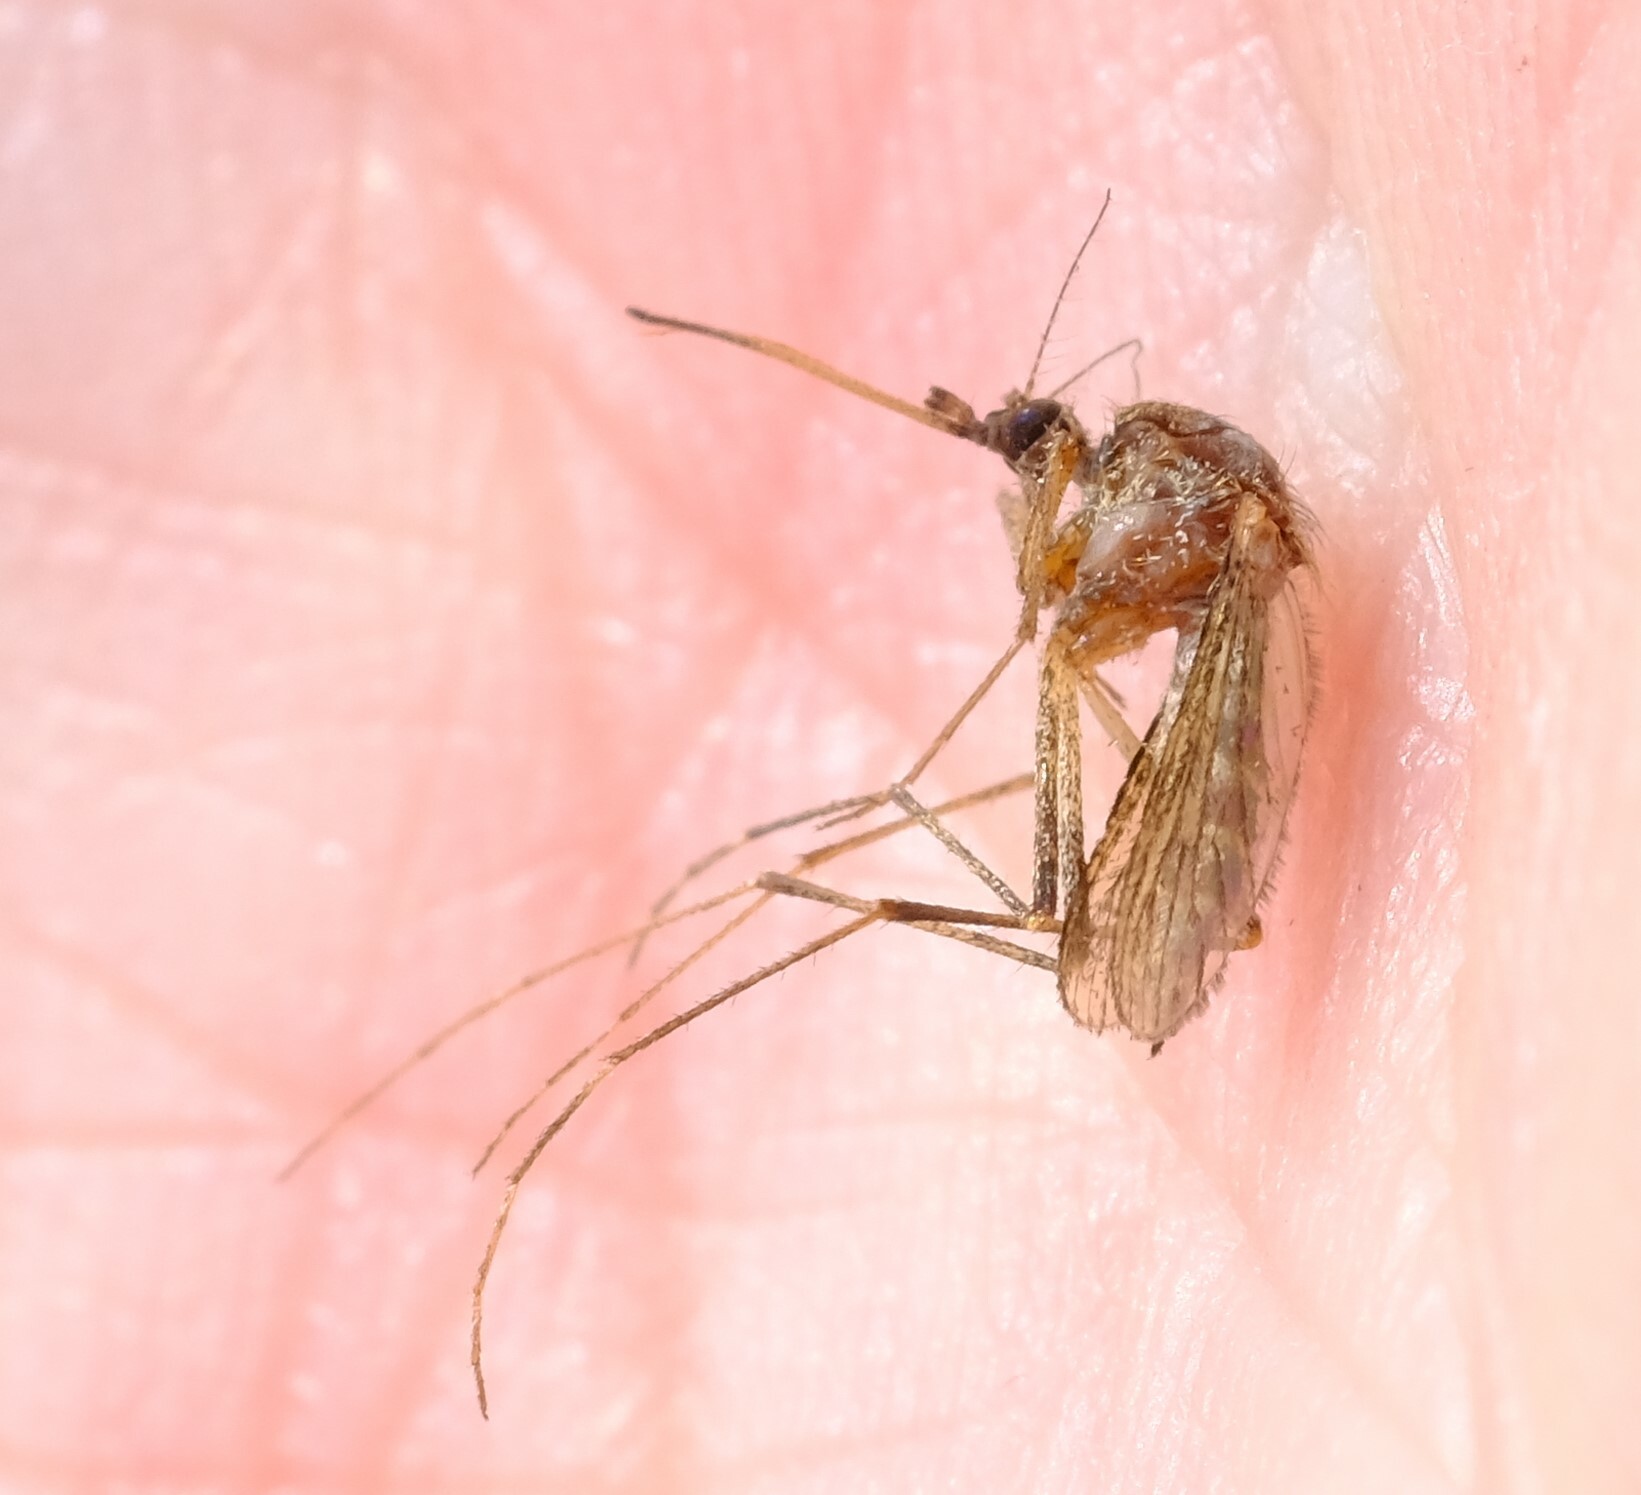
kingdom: Animalia
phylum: Arthropoda
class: Insecta
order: Diptera
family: Culicidae
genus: Aedes
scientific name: Aedes camptorhynchus
